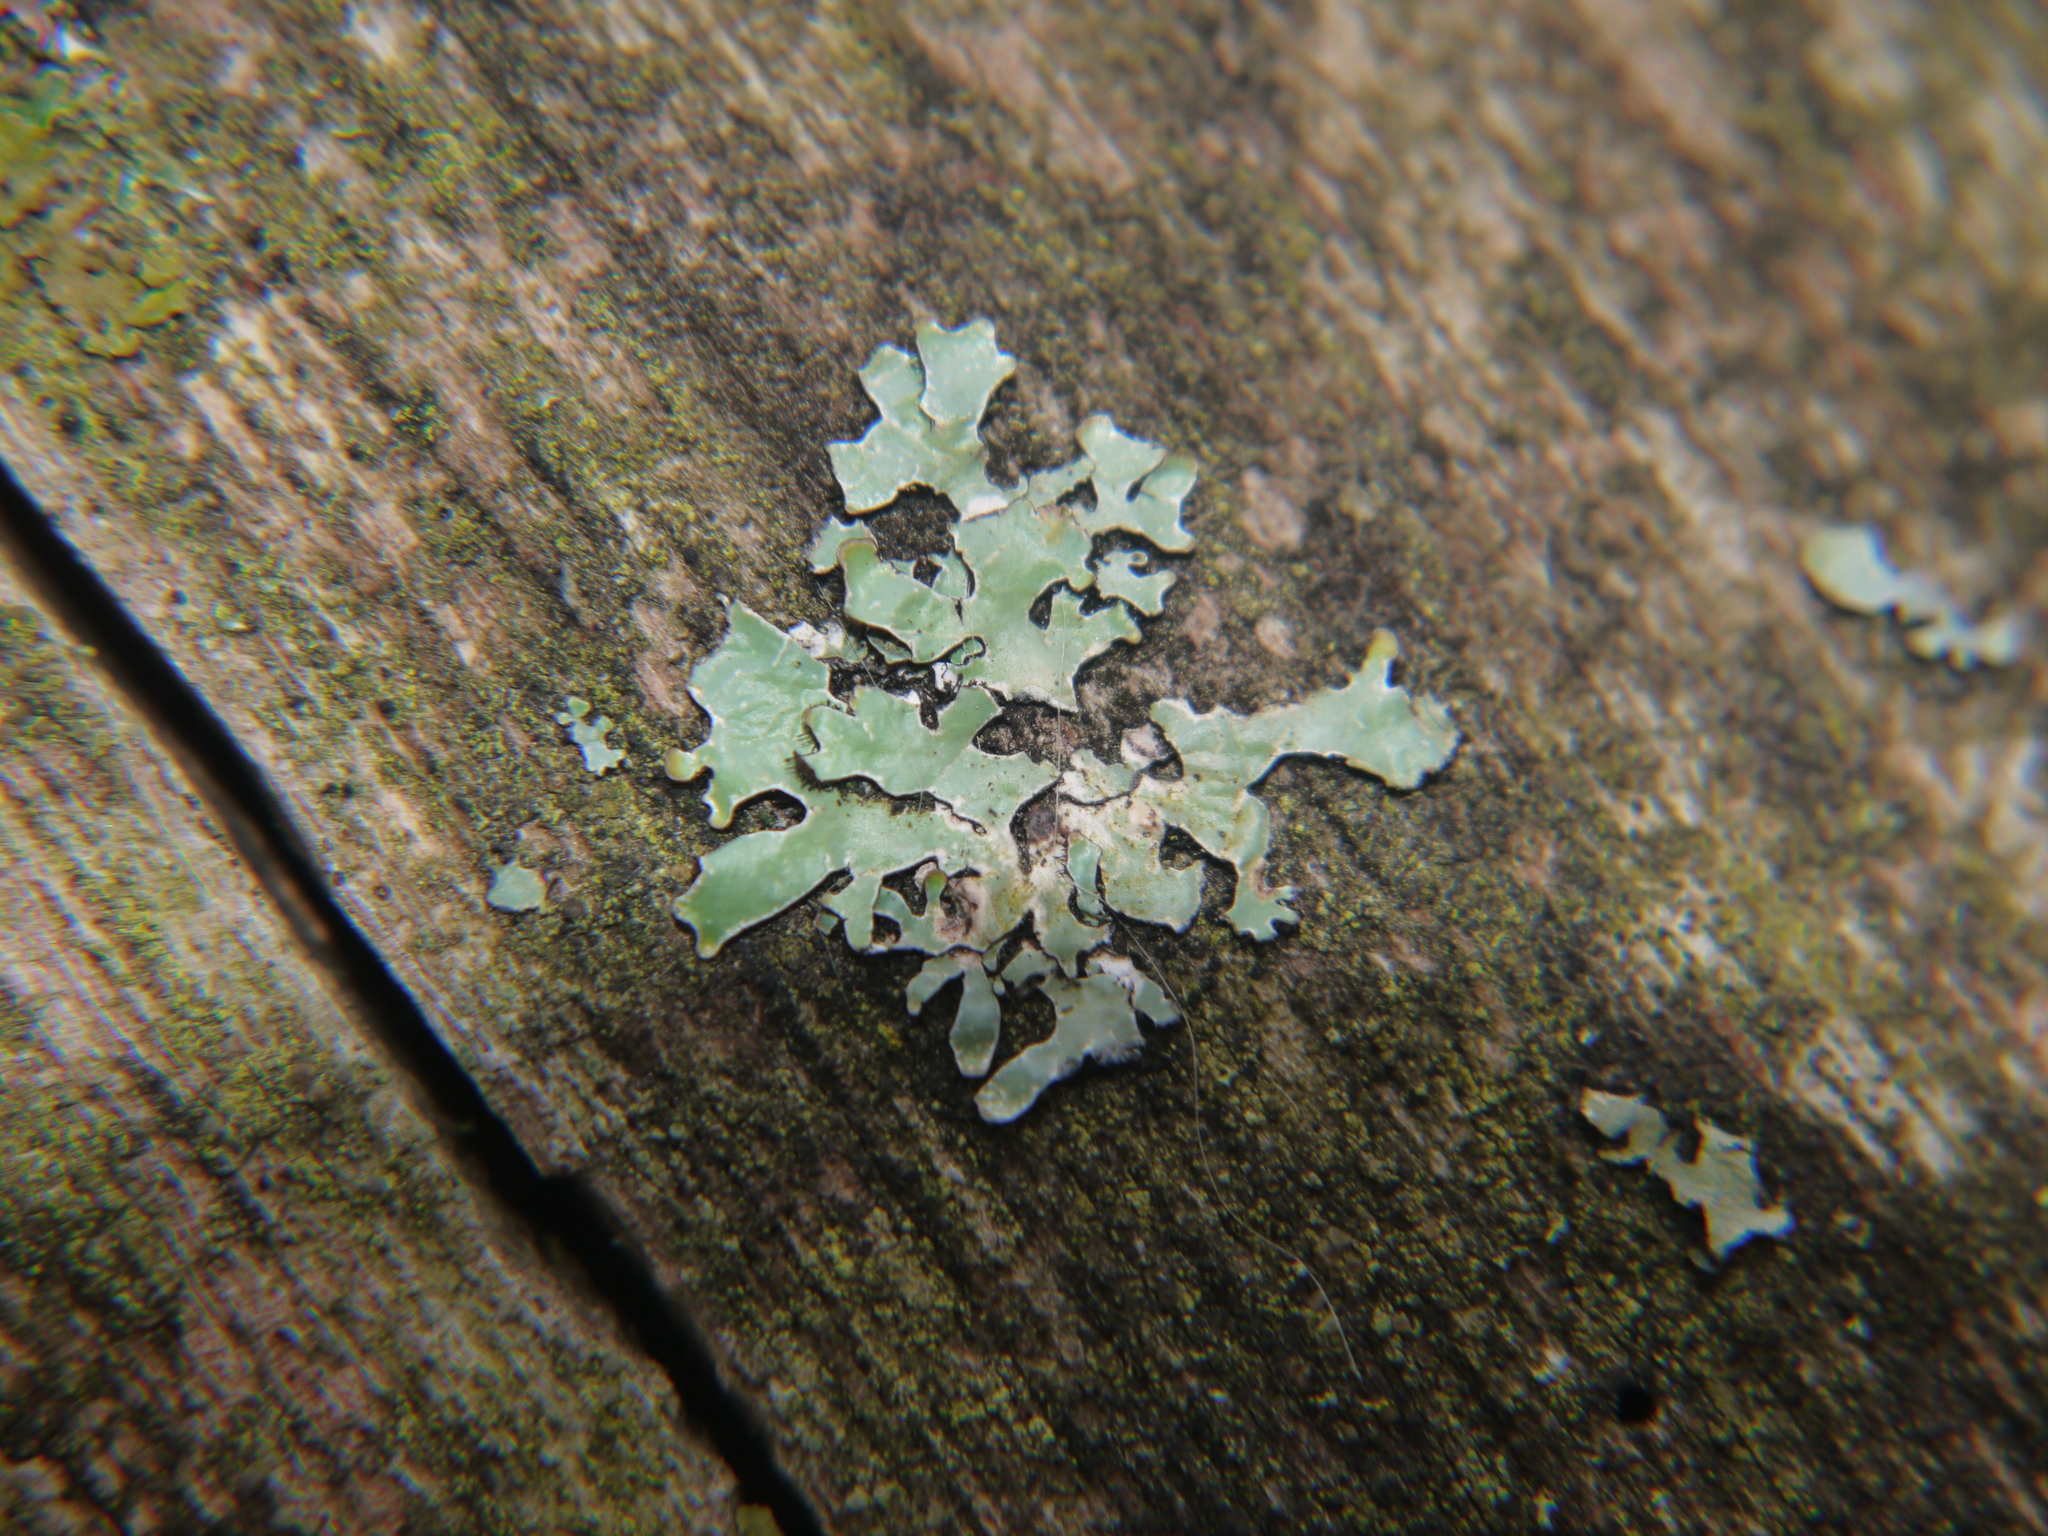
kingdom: Fungi
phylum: Ascomycota
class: Lecanoromycetes
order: Lecanorales
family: Parmeliaceae
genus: Parmelia
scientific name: Parmelia sulcata
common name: Netted shield lichen
